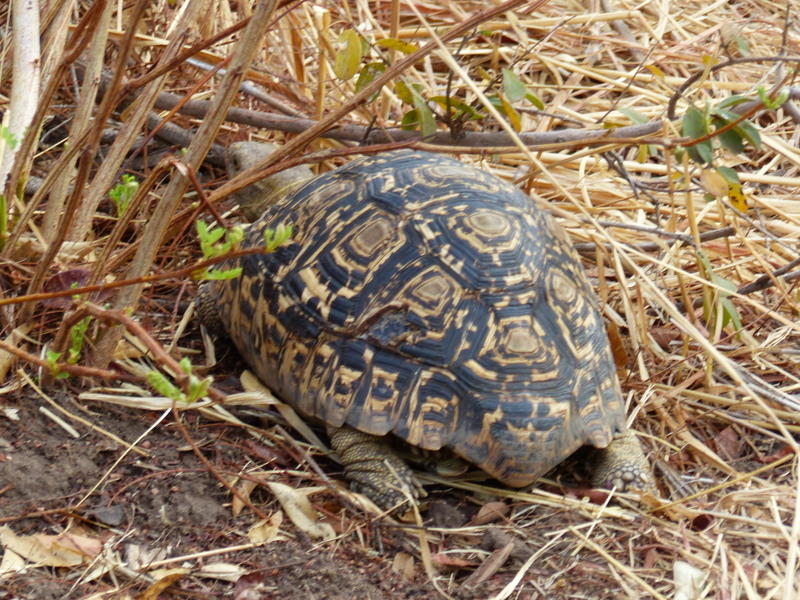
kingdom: Animalia
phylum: Chordata
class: Testudines
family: Testudinidae
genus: Stigmochelys
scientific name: Stigmochelys pardalis
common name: Leopard tortoise
